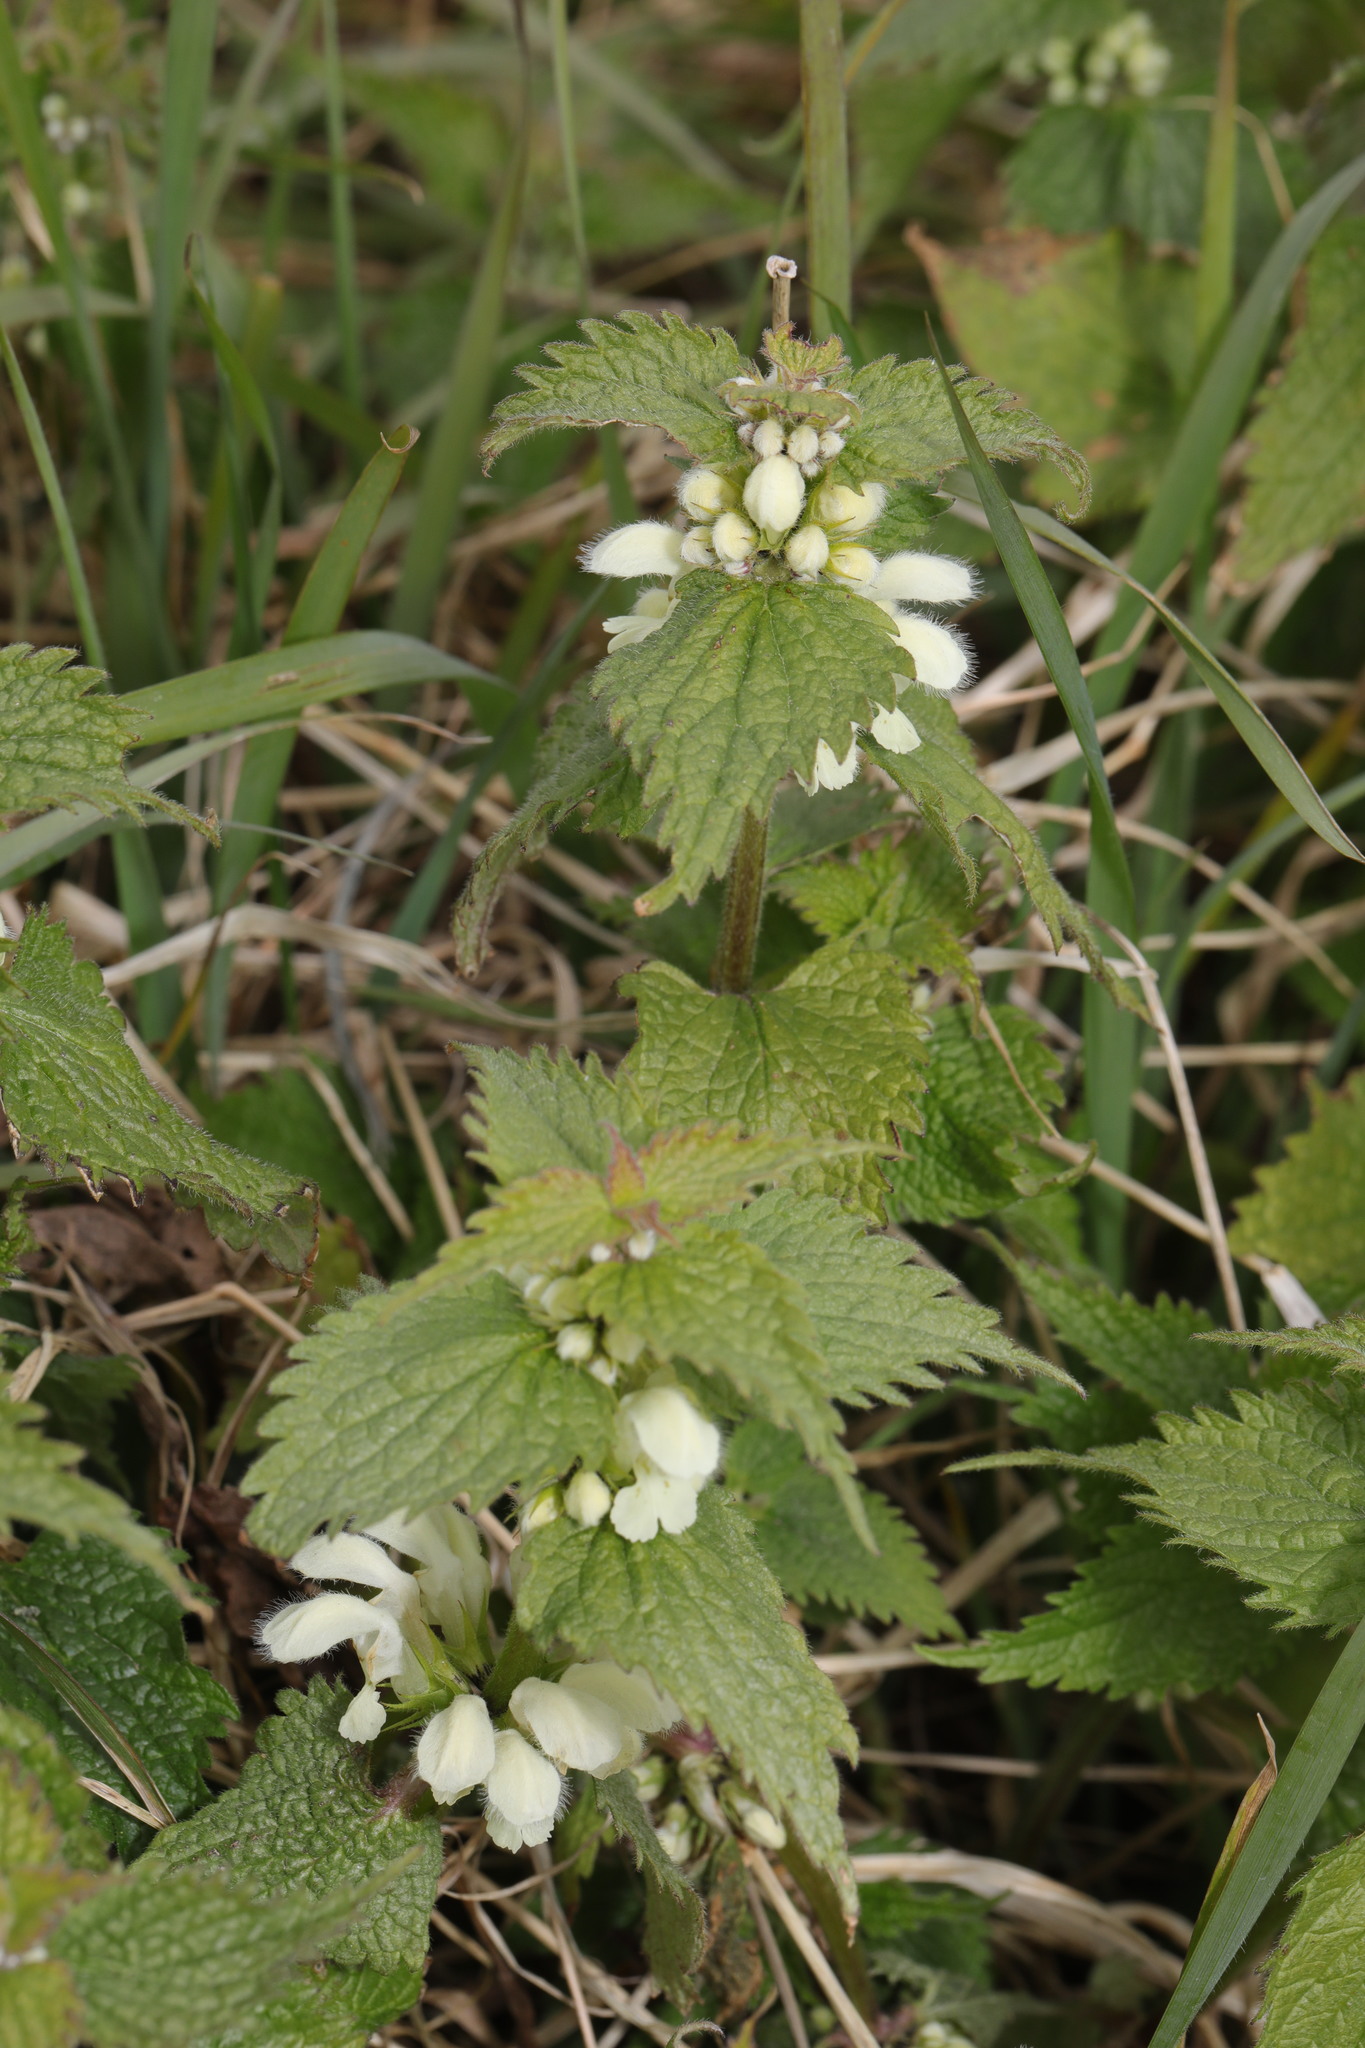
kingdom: Plantae
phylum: Tracheophyta
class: Magnoliopsida
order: Lamiales
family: Lamiaceae
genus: Lamium
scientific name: Lamium album
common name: White dead-nettle
